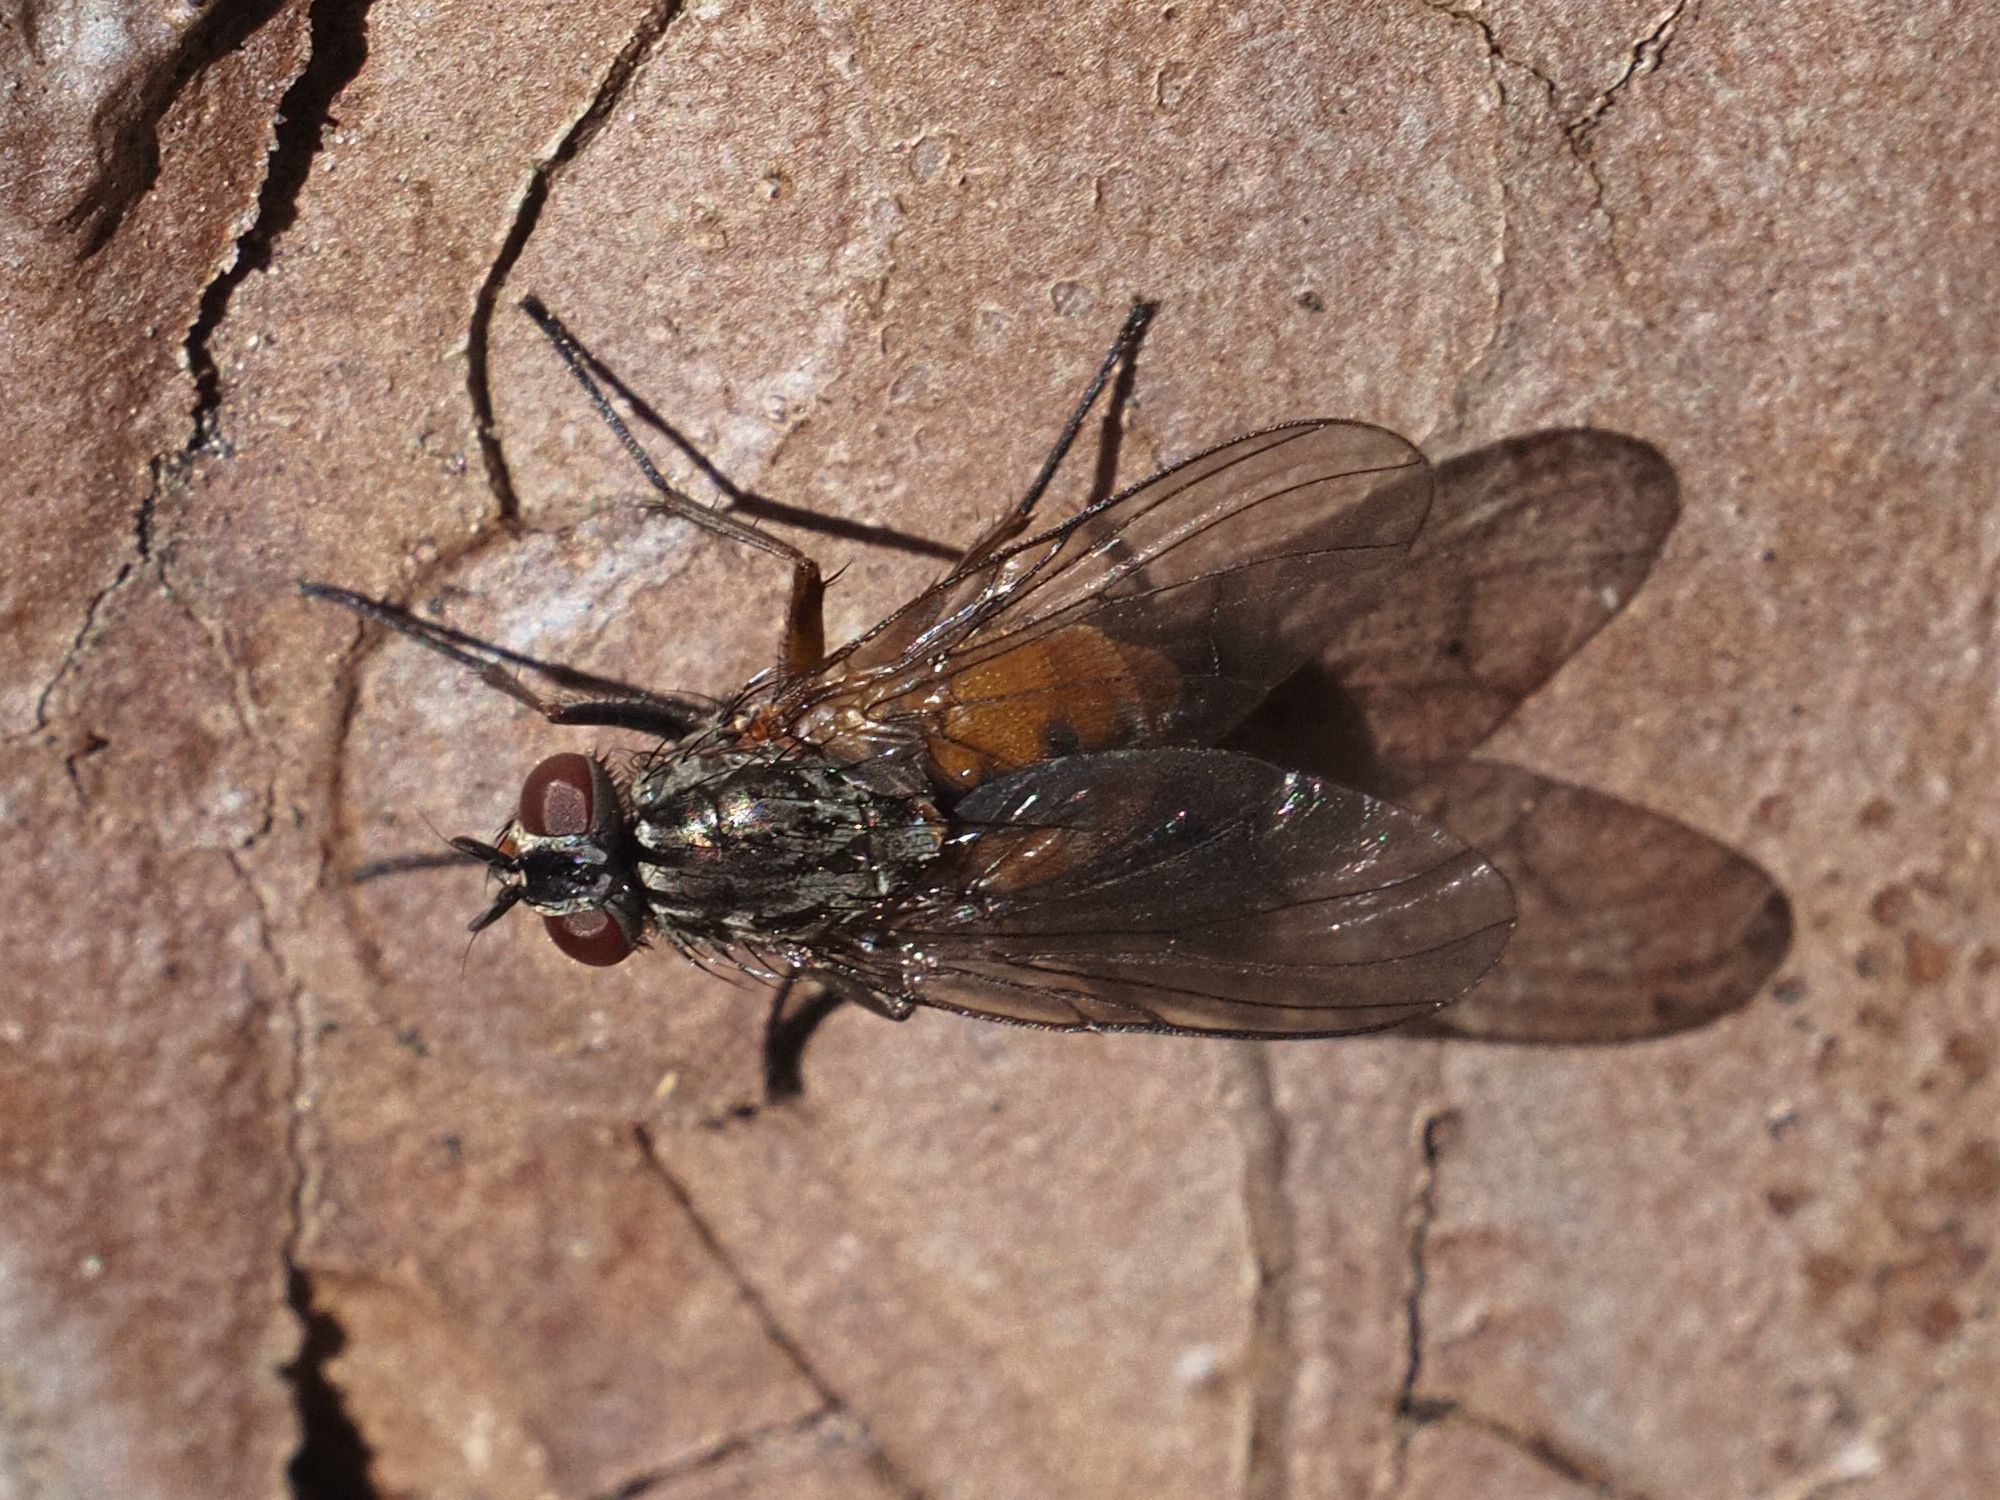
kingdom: Animalia
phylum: Arthropoda
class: Insecta
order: Diptera
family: Muscidae
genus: Phaonia
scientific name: Phaonia subventa
